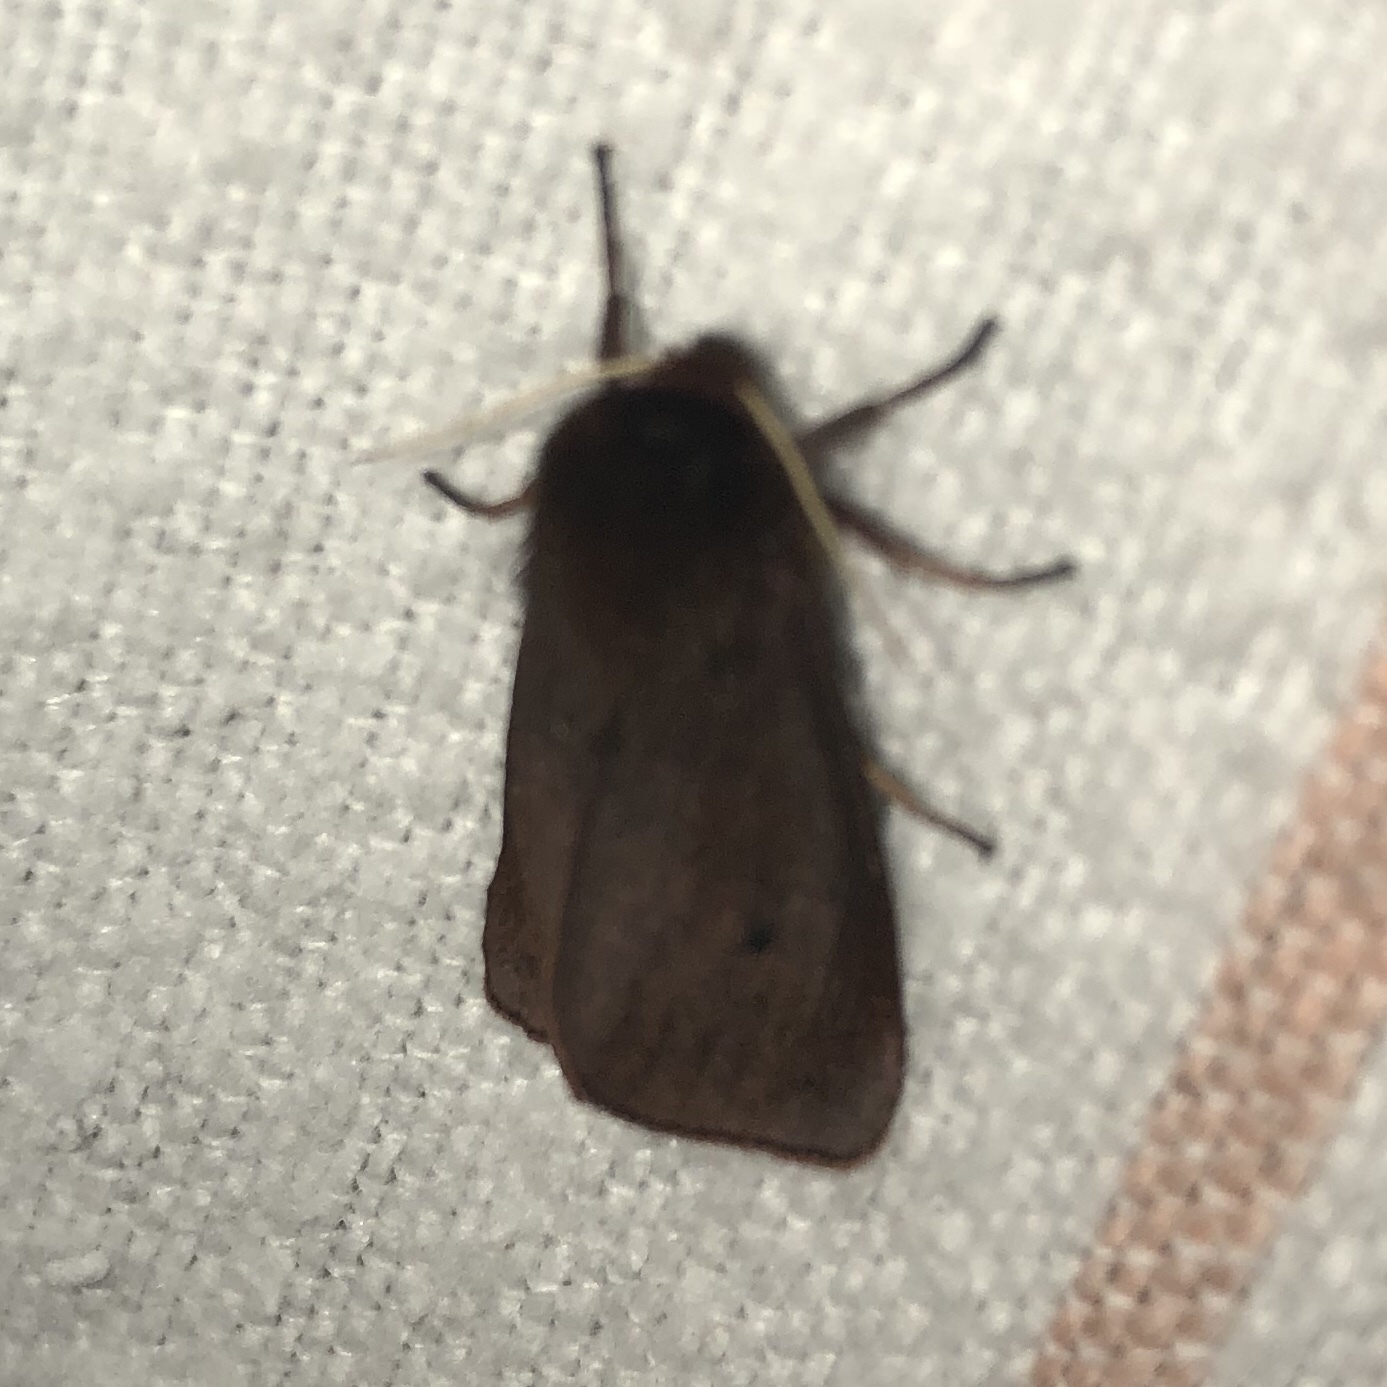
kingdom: Animalia
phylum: Arthropoda
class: Insecta
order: Lepidoptera
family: Erebidae
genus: Phragmatobia
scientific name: Phragmatobia fuliginosa
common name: Ruby tiger
